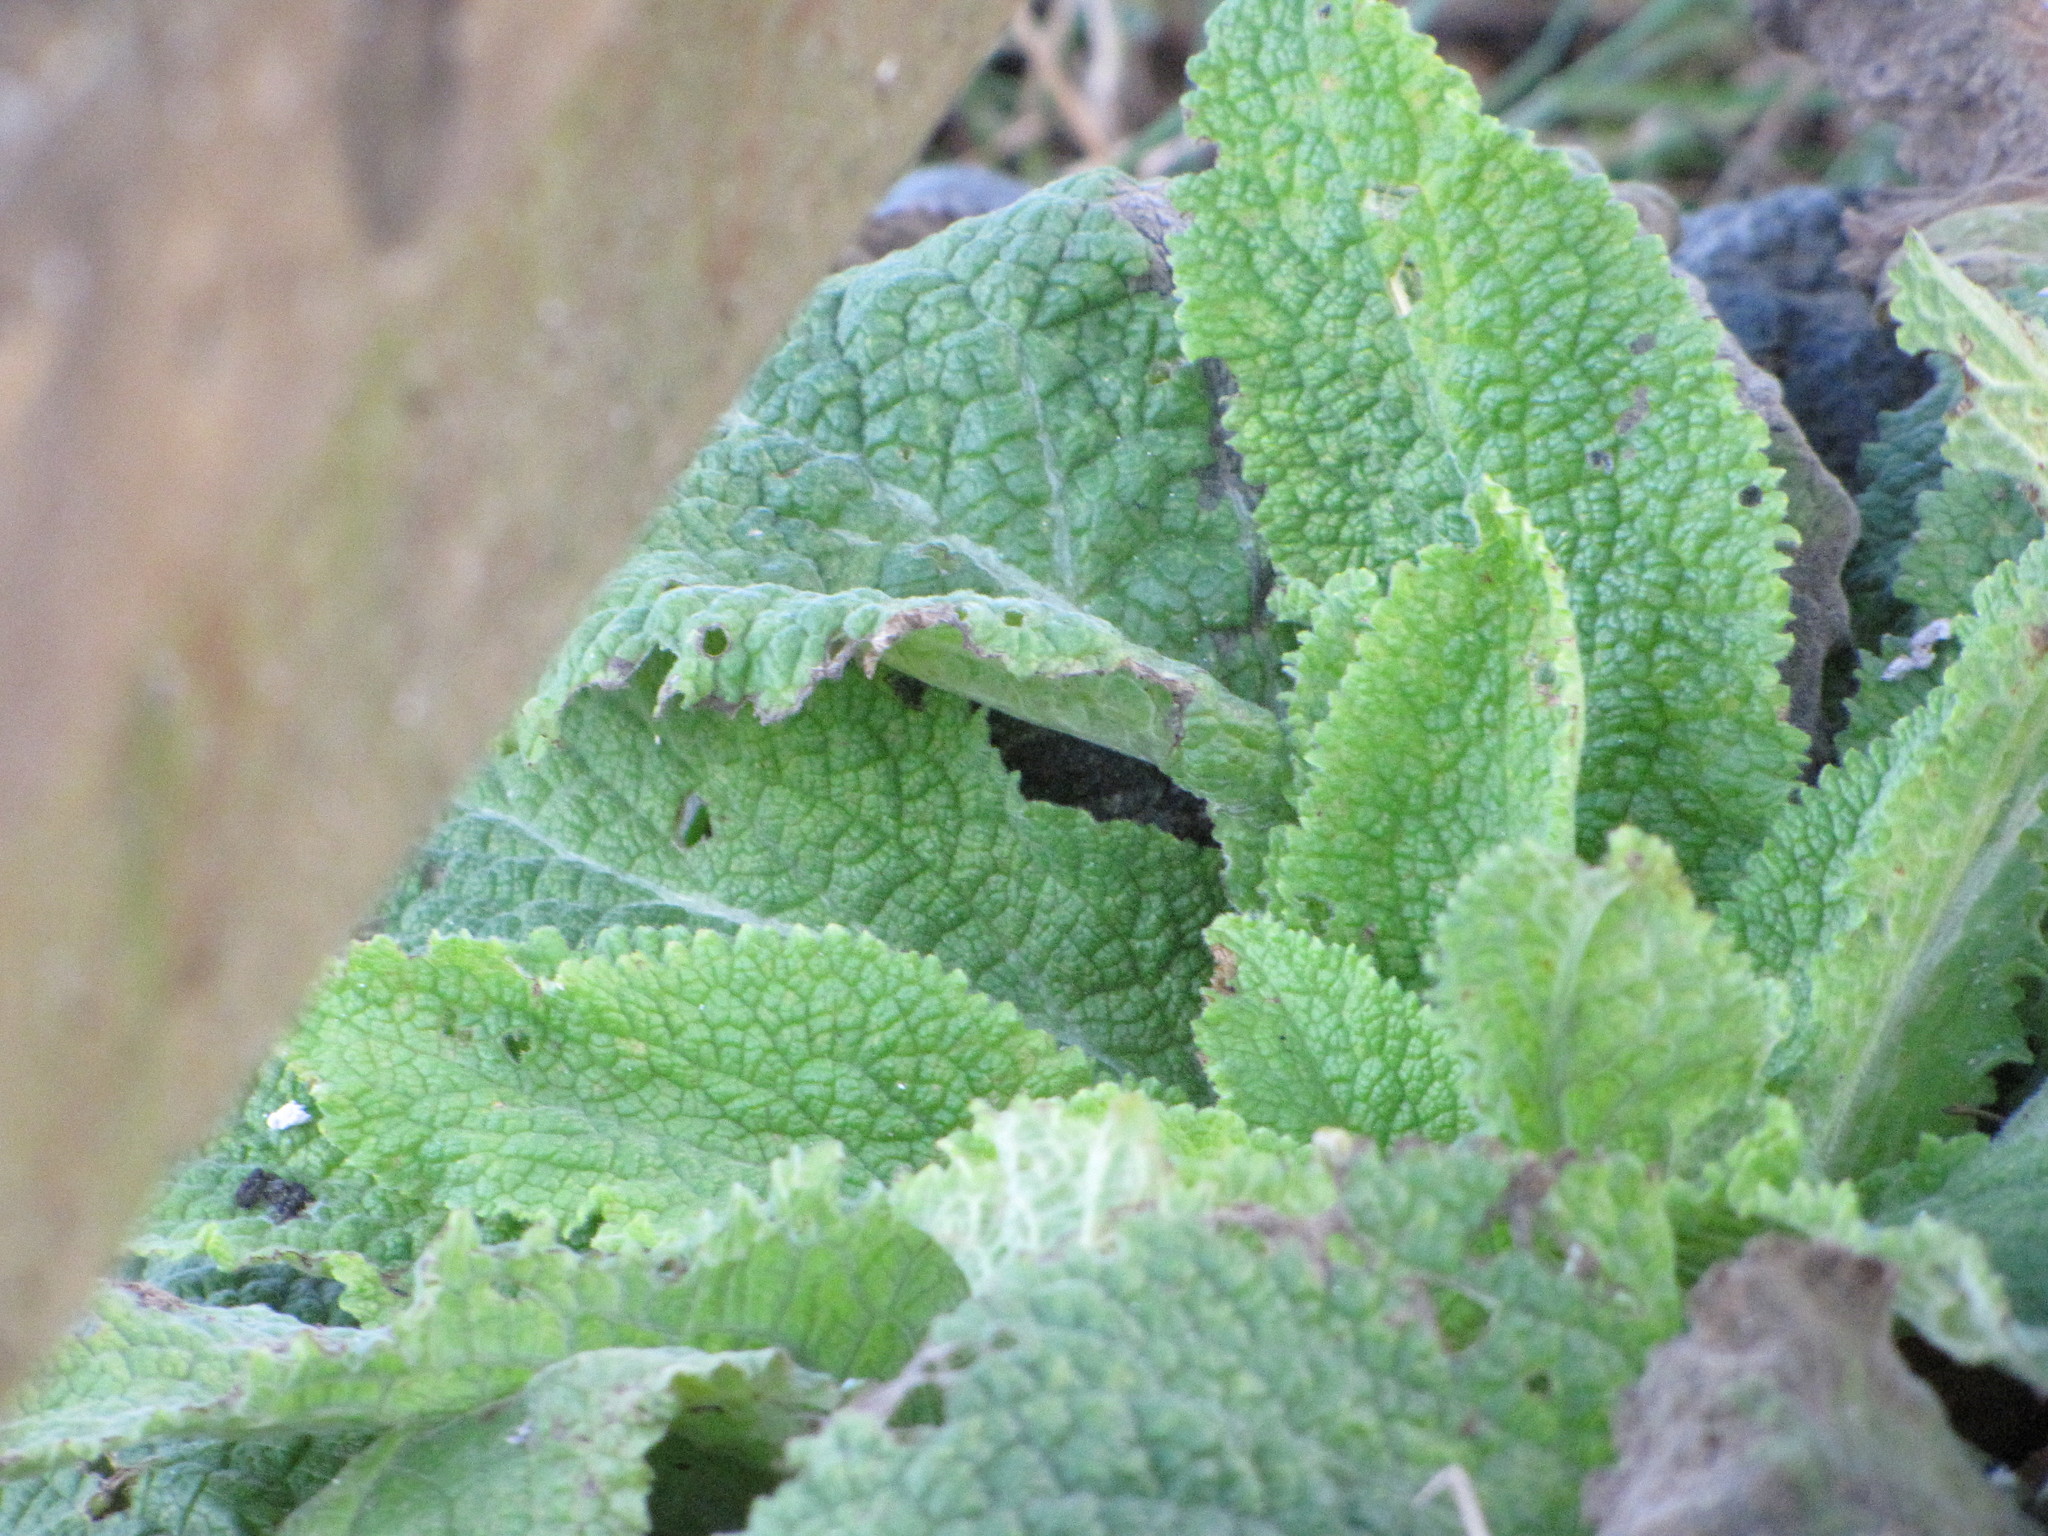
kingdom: Plantae
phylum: Tracheophyta
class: Magnoliopsida
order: Lamiales
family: Plantaginaceae
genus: Digitalis
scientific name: Digitalis purpurea
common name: Foxglove
